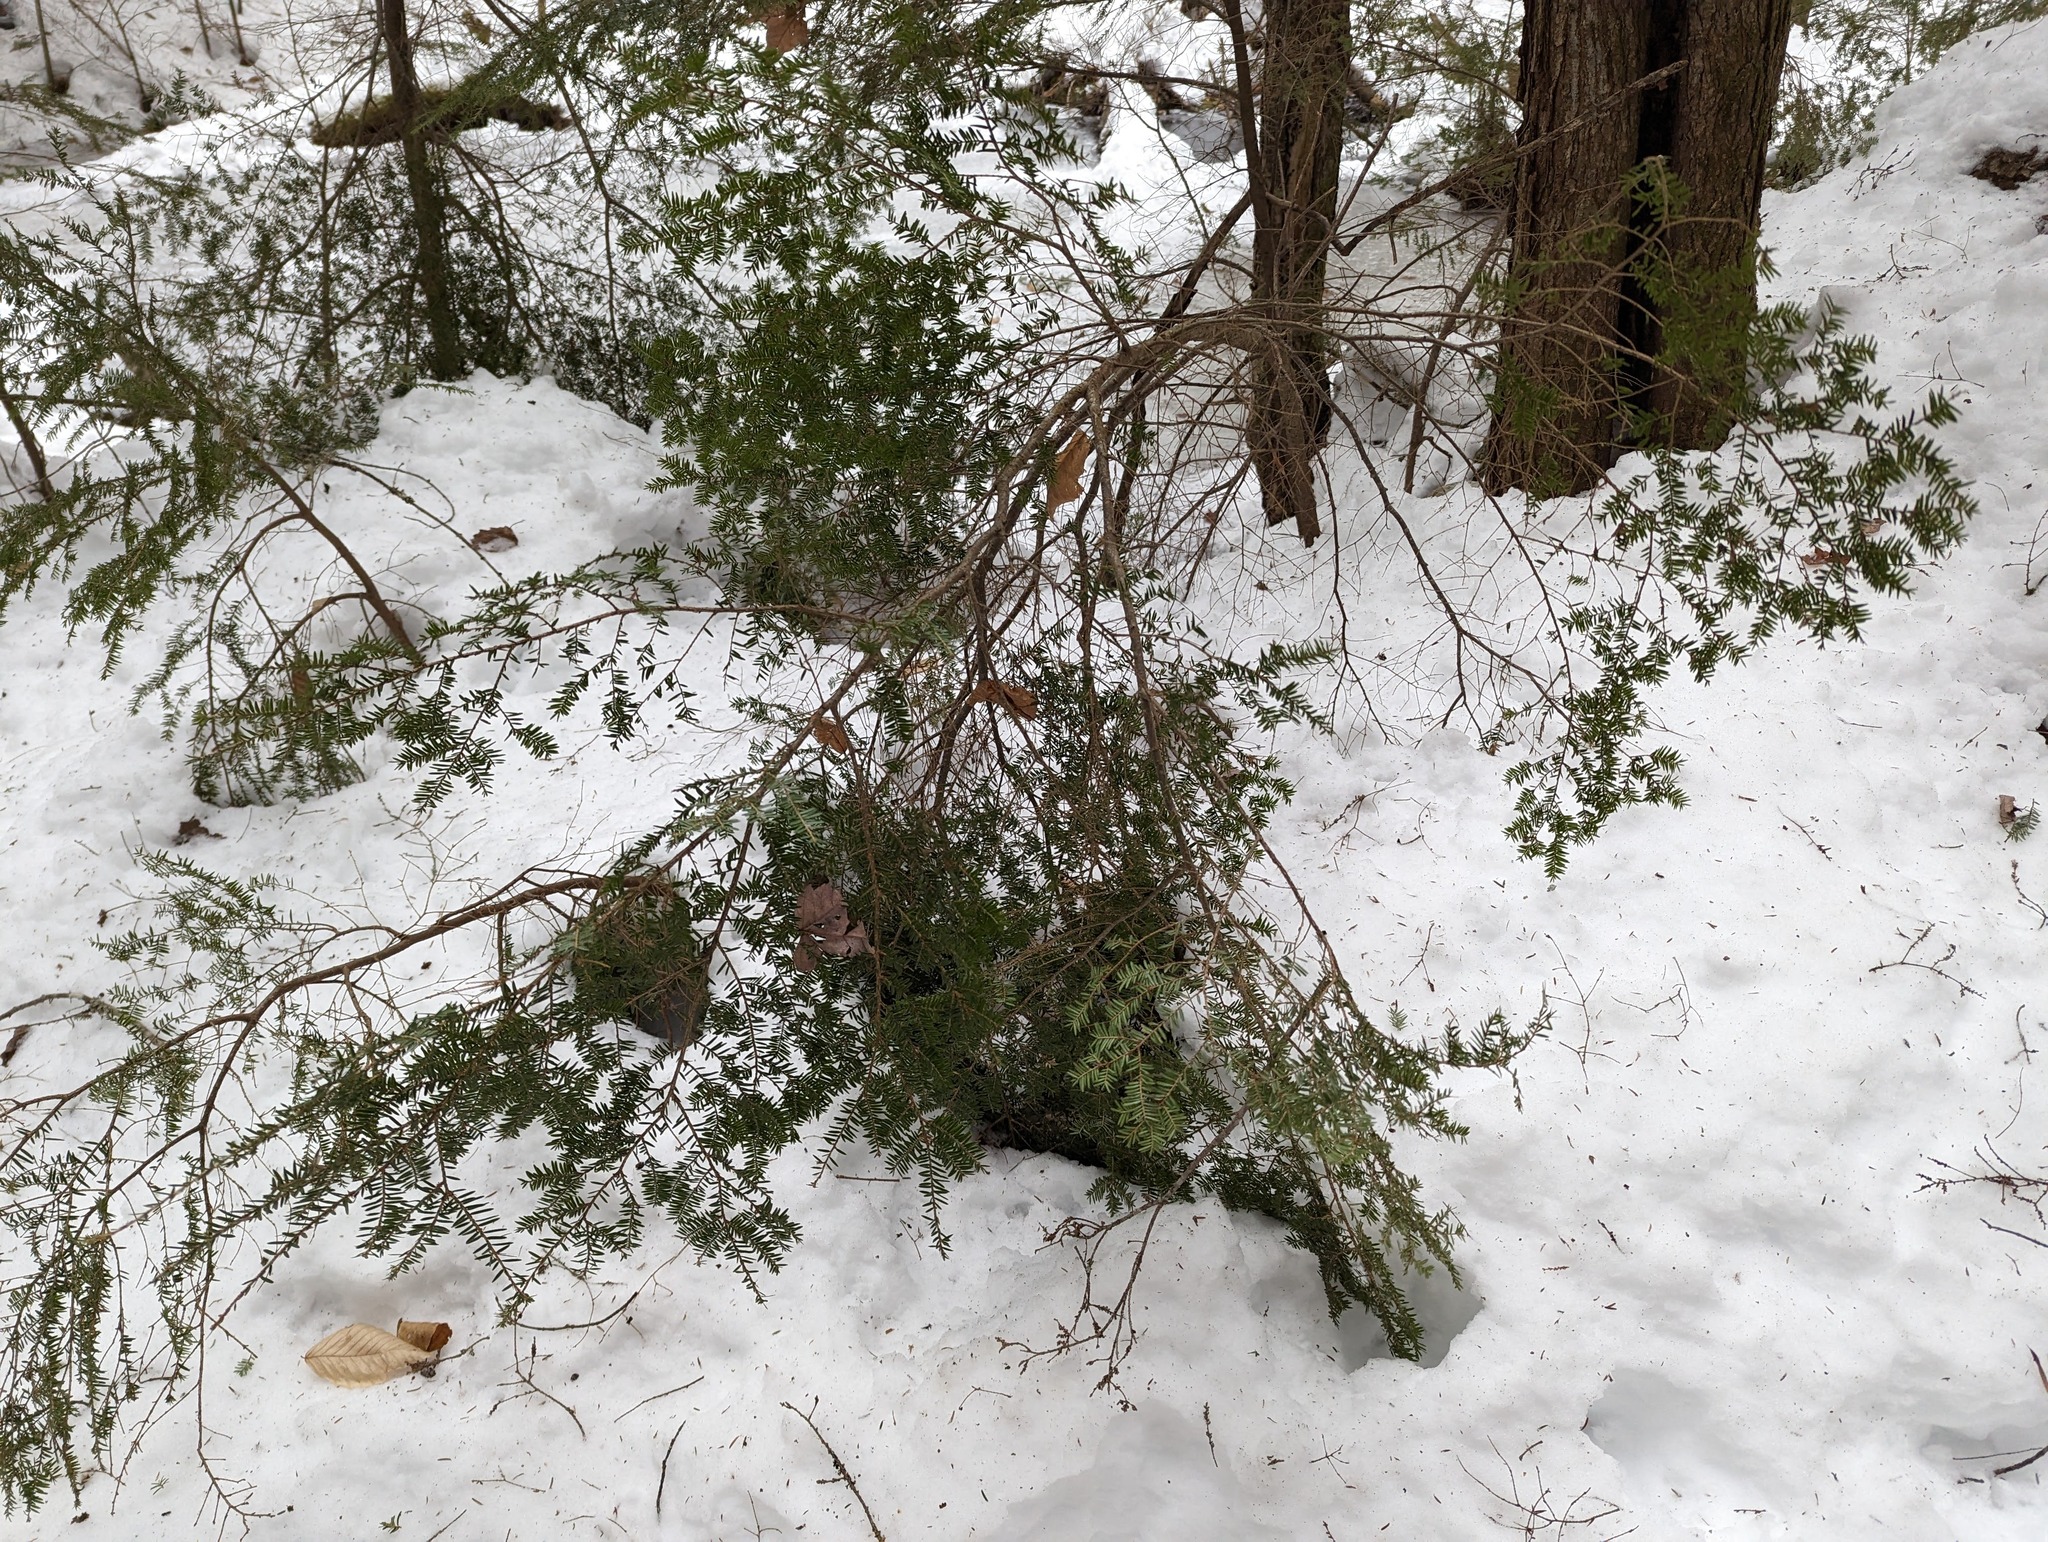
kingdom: Plantae
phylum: Tracheophyta
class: Pinopsida
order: Pinales
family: Pinaceae
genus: Tsuga
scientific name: Tsuga canadensis
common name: Eastern hemlock
